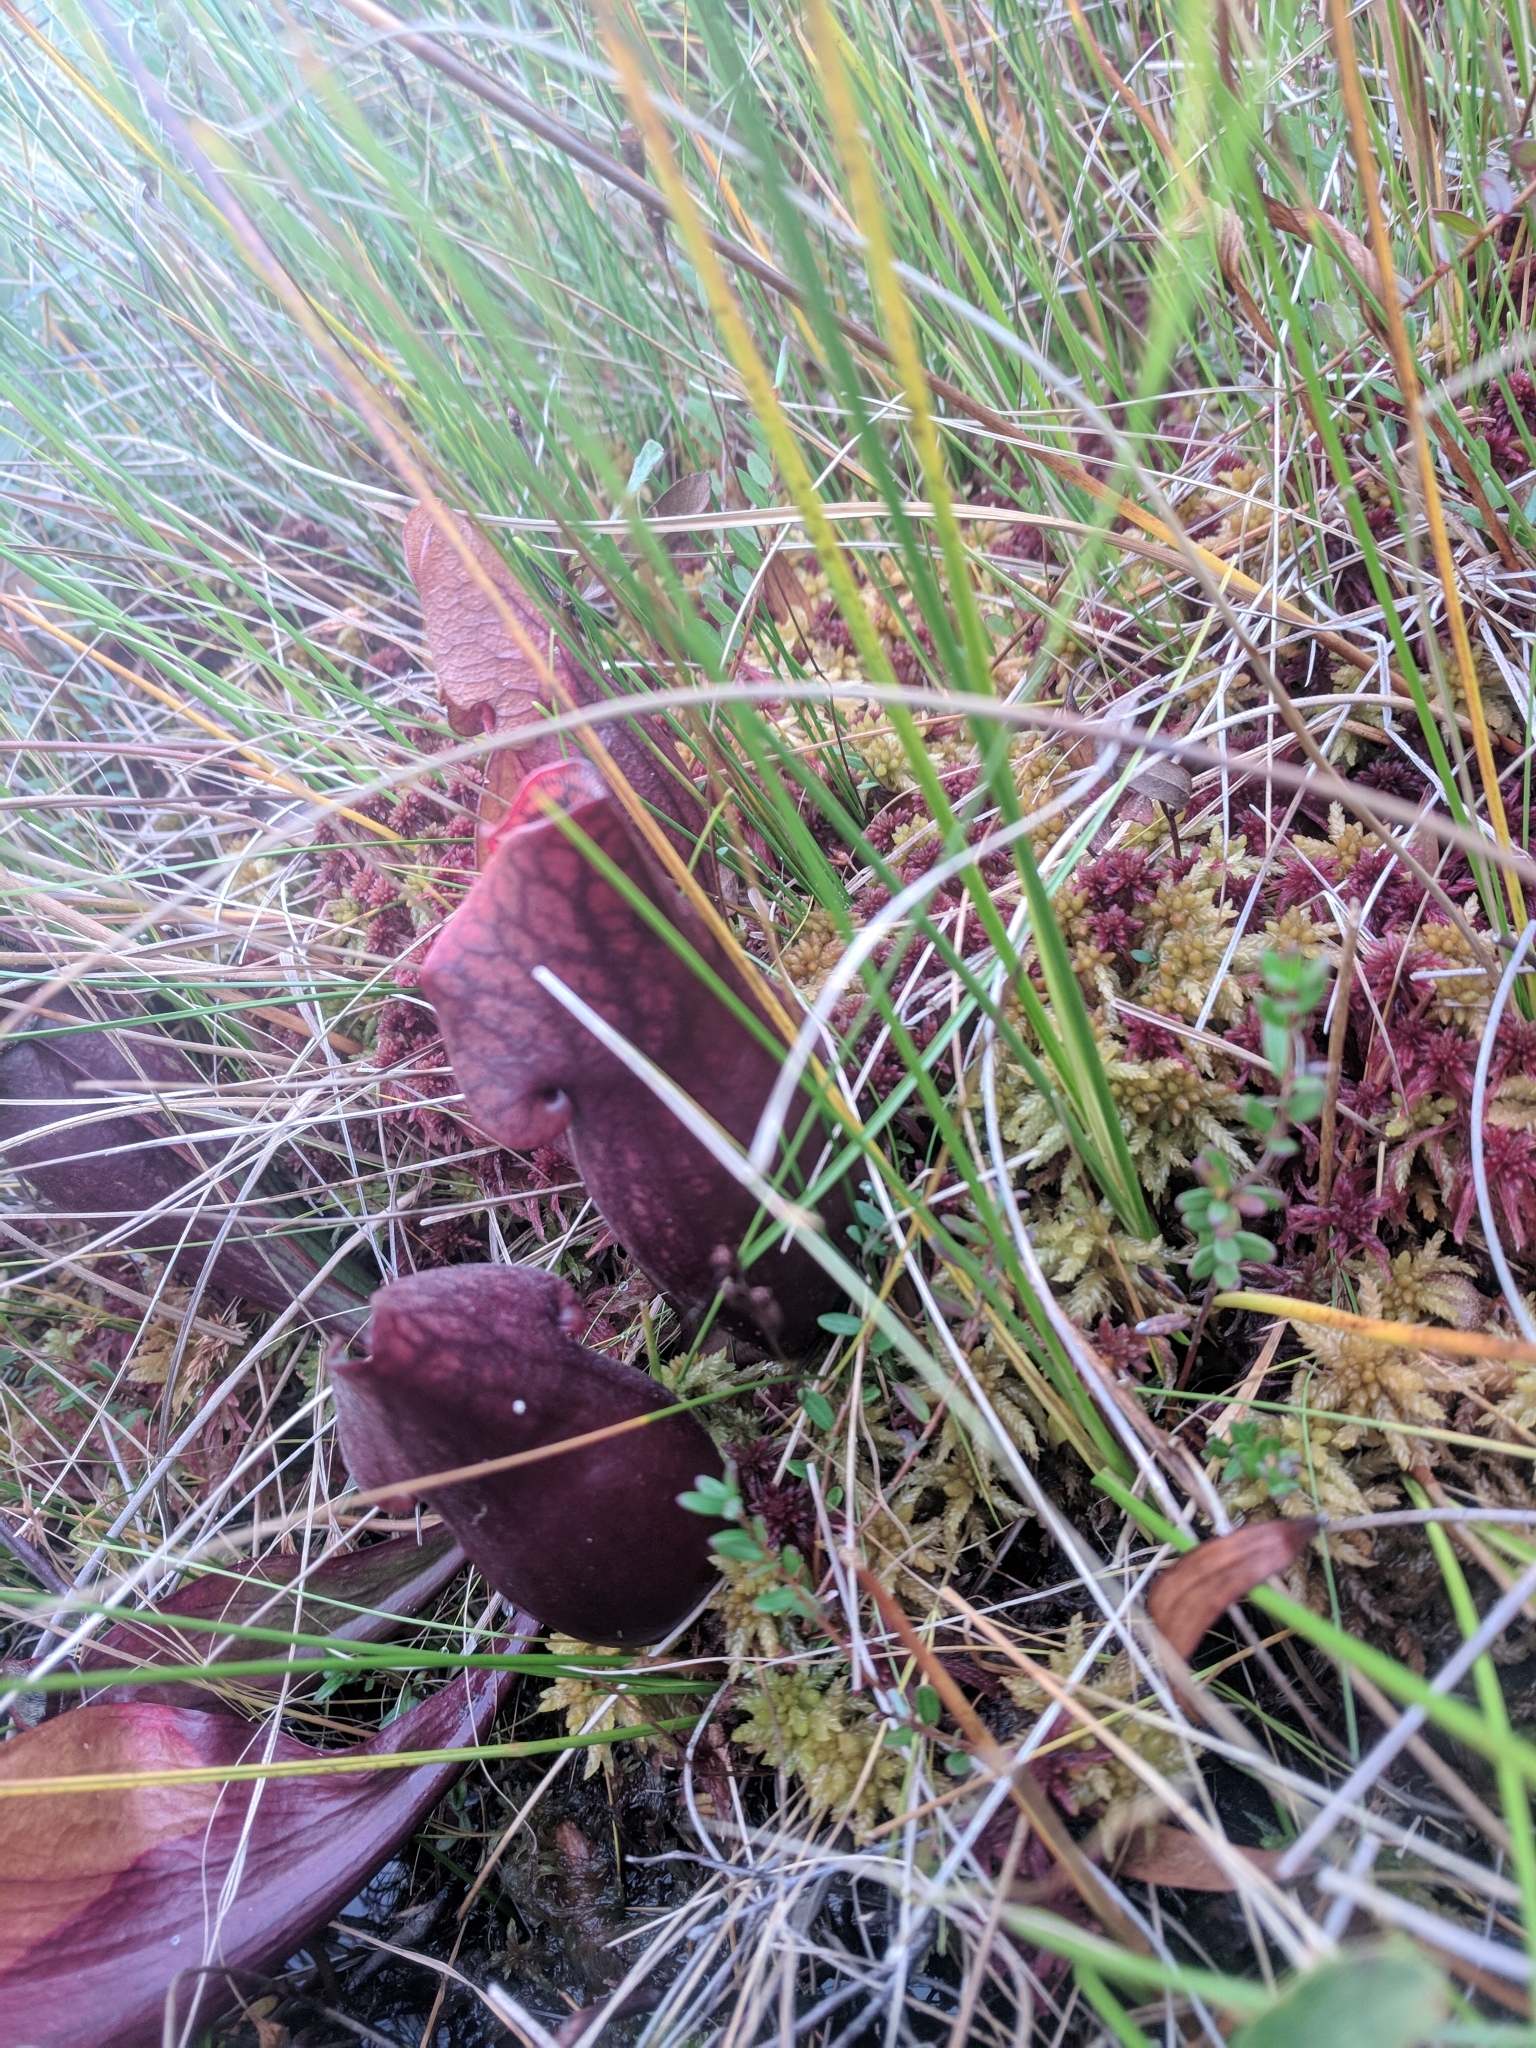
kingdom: Plantae
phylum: Tracheophyta
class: Magnoliopsida
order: Ericales
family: Sarraceniaceae
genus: Sarracenia
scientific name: Sarracenia purpurea
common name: Pitcherplant
